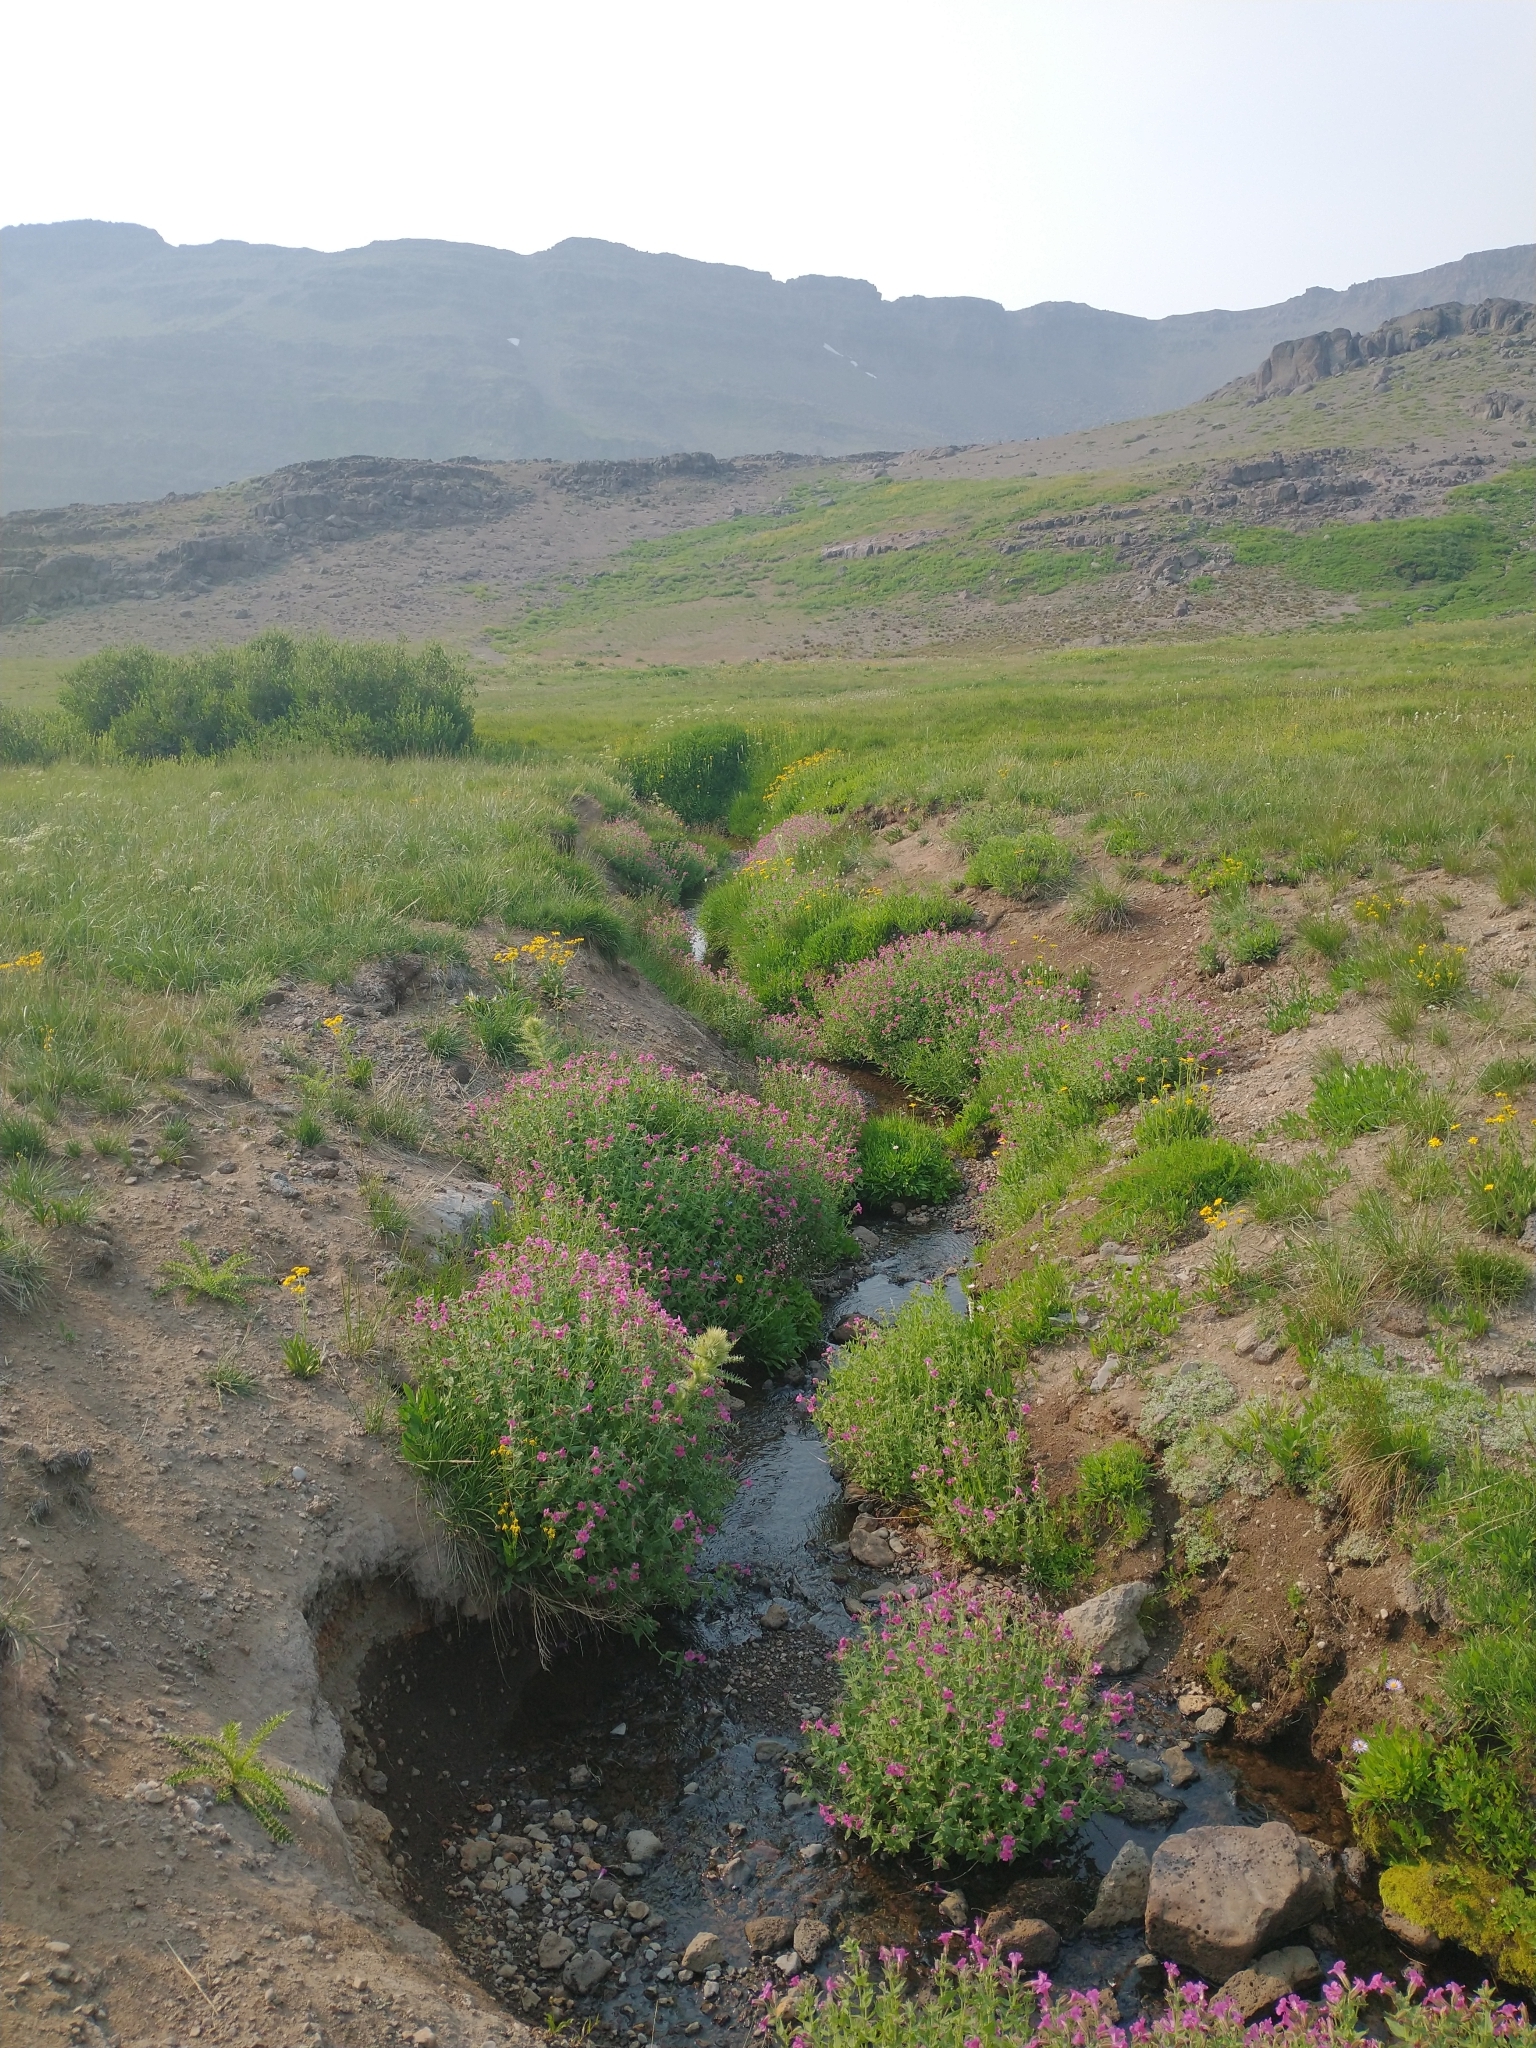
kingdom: Plantae
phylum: Tracheophyta
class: Magnoliopsida
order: Lamiales
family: Phrymaceae
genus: Erythranthe
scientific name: Erythranthe lewisii
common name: Lewis's monkey-flower
